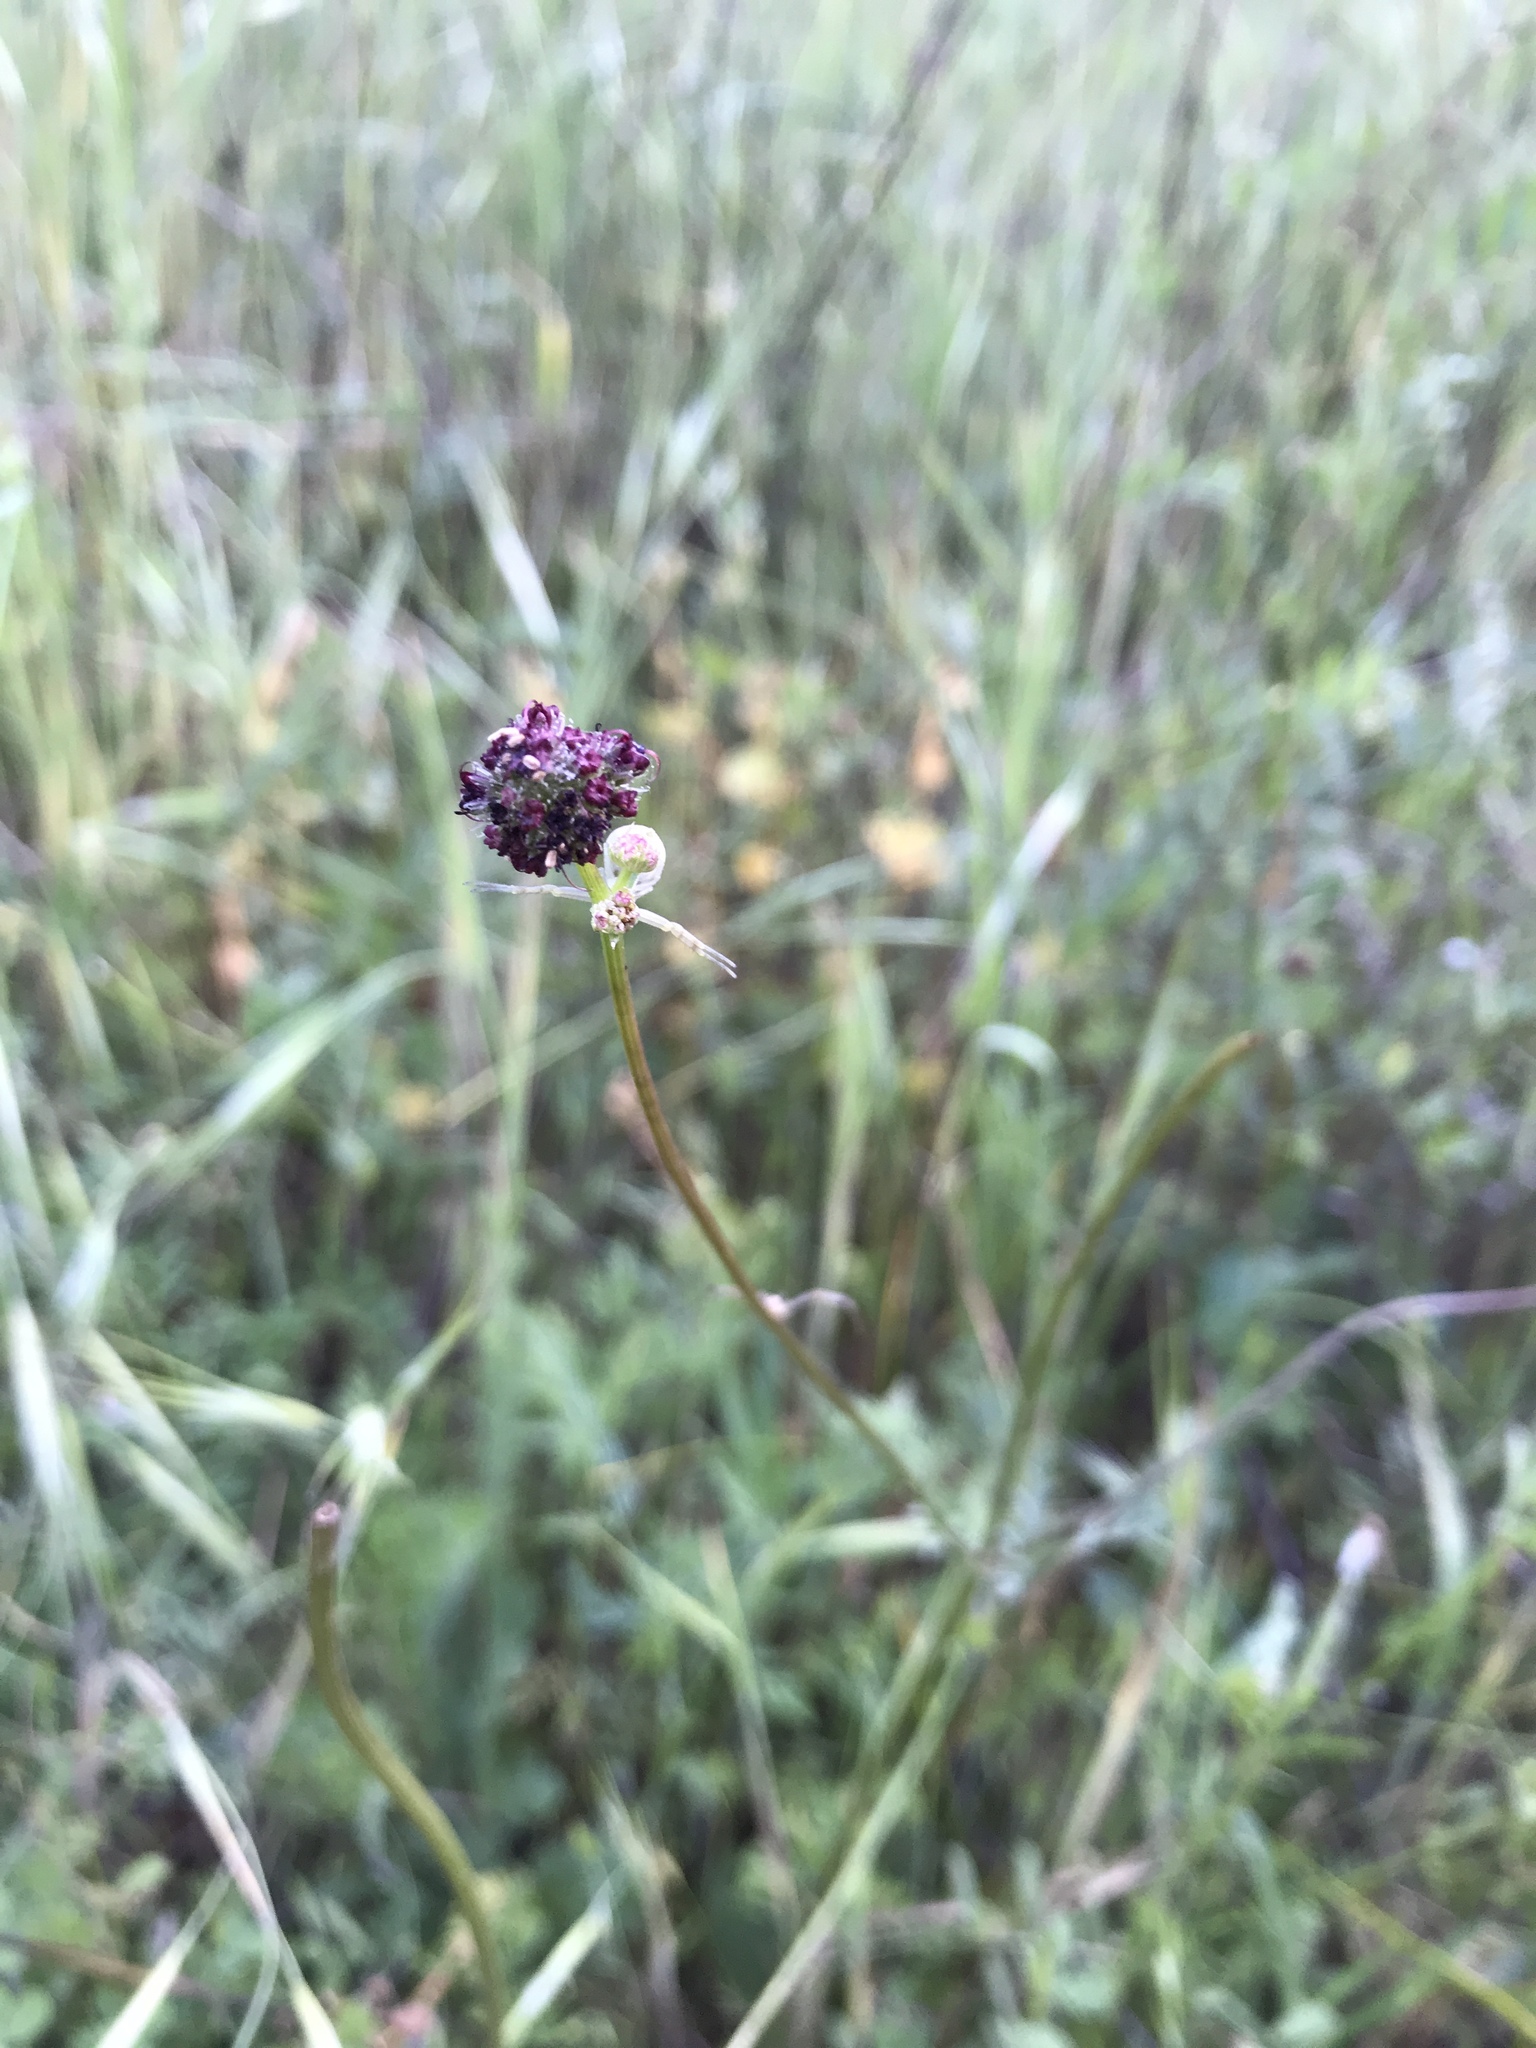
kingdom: Plantae
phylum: Tracheophyta
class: Magnoliopsida
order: Apiales
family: Apiaceae
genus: Sanicula
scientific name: Sanicula bipinnatifida
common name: Shoe-buttons
